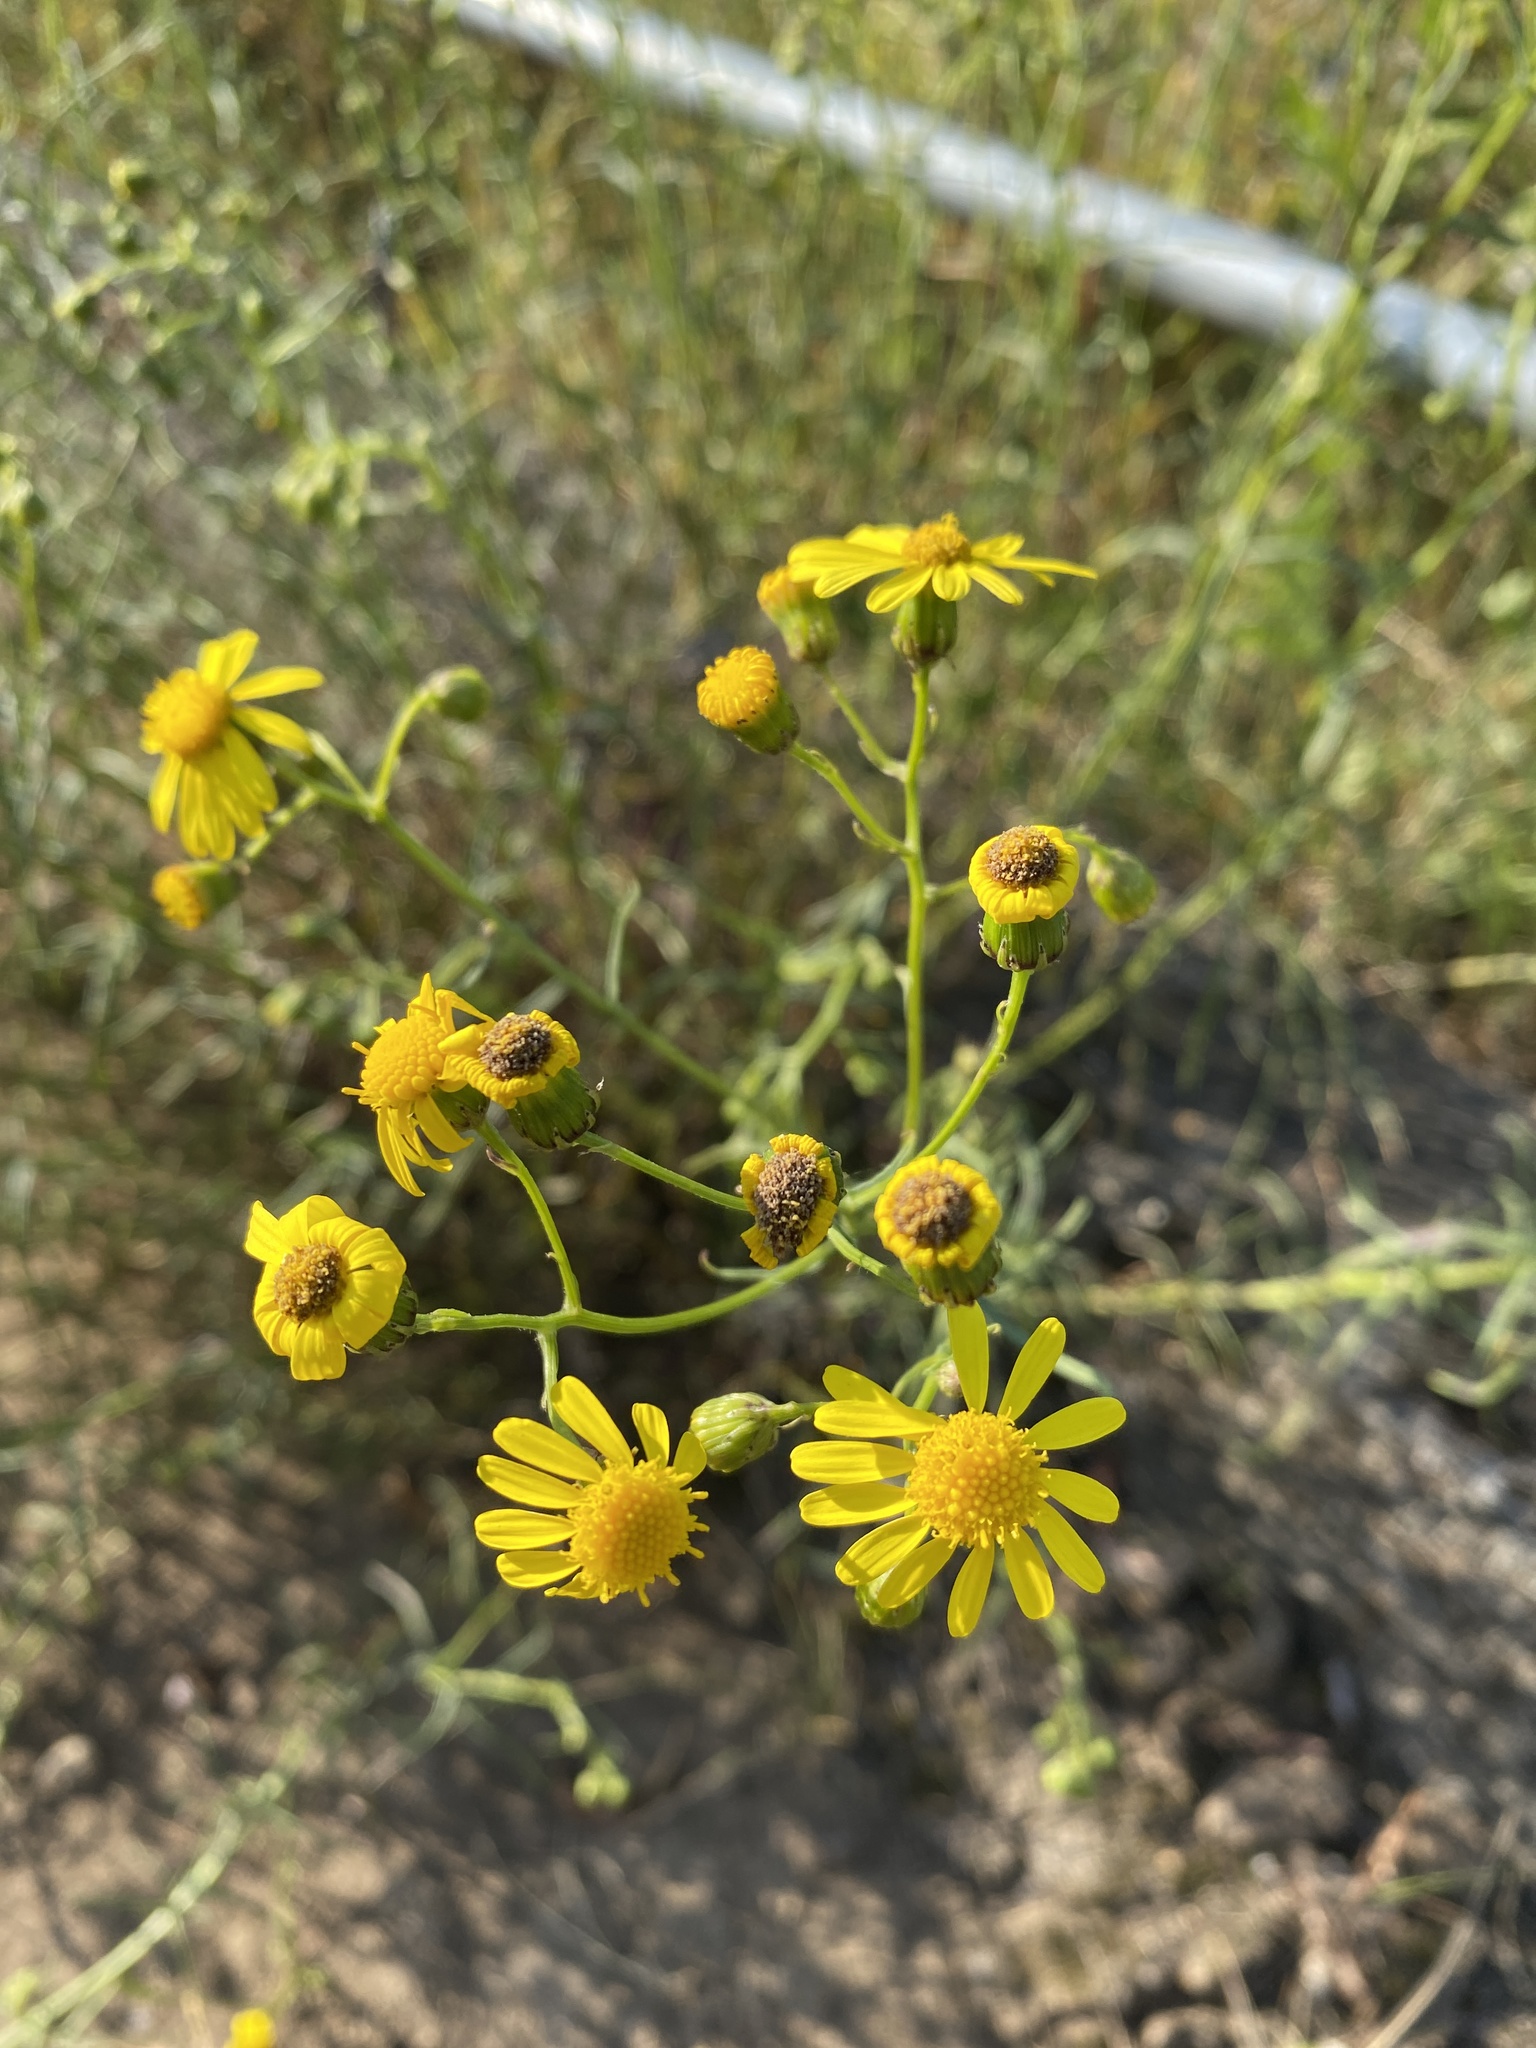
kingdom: Plantae
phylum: Tracheophyta
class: Magnoliopsida
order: Asterales
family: Asteraceae
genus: Senecio
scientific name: Senecio inaequidens
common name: Narrow-leaved ragwort
